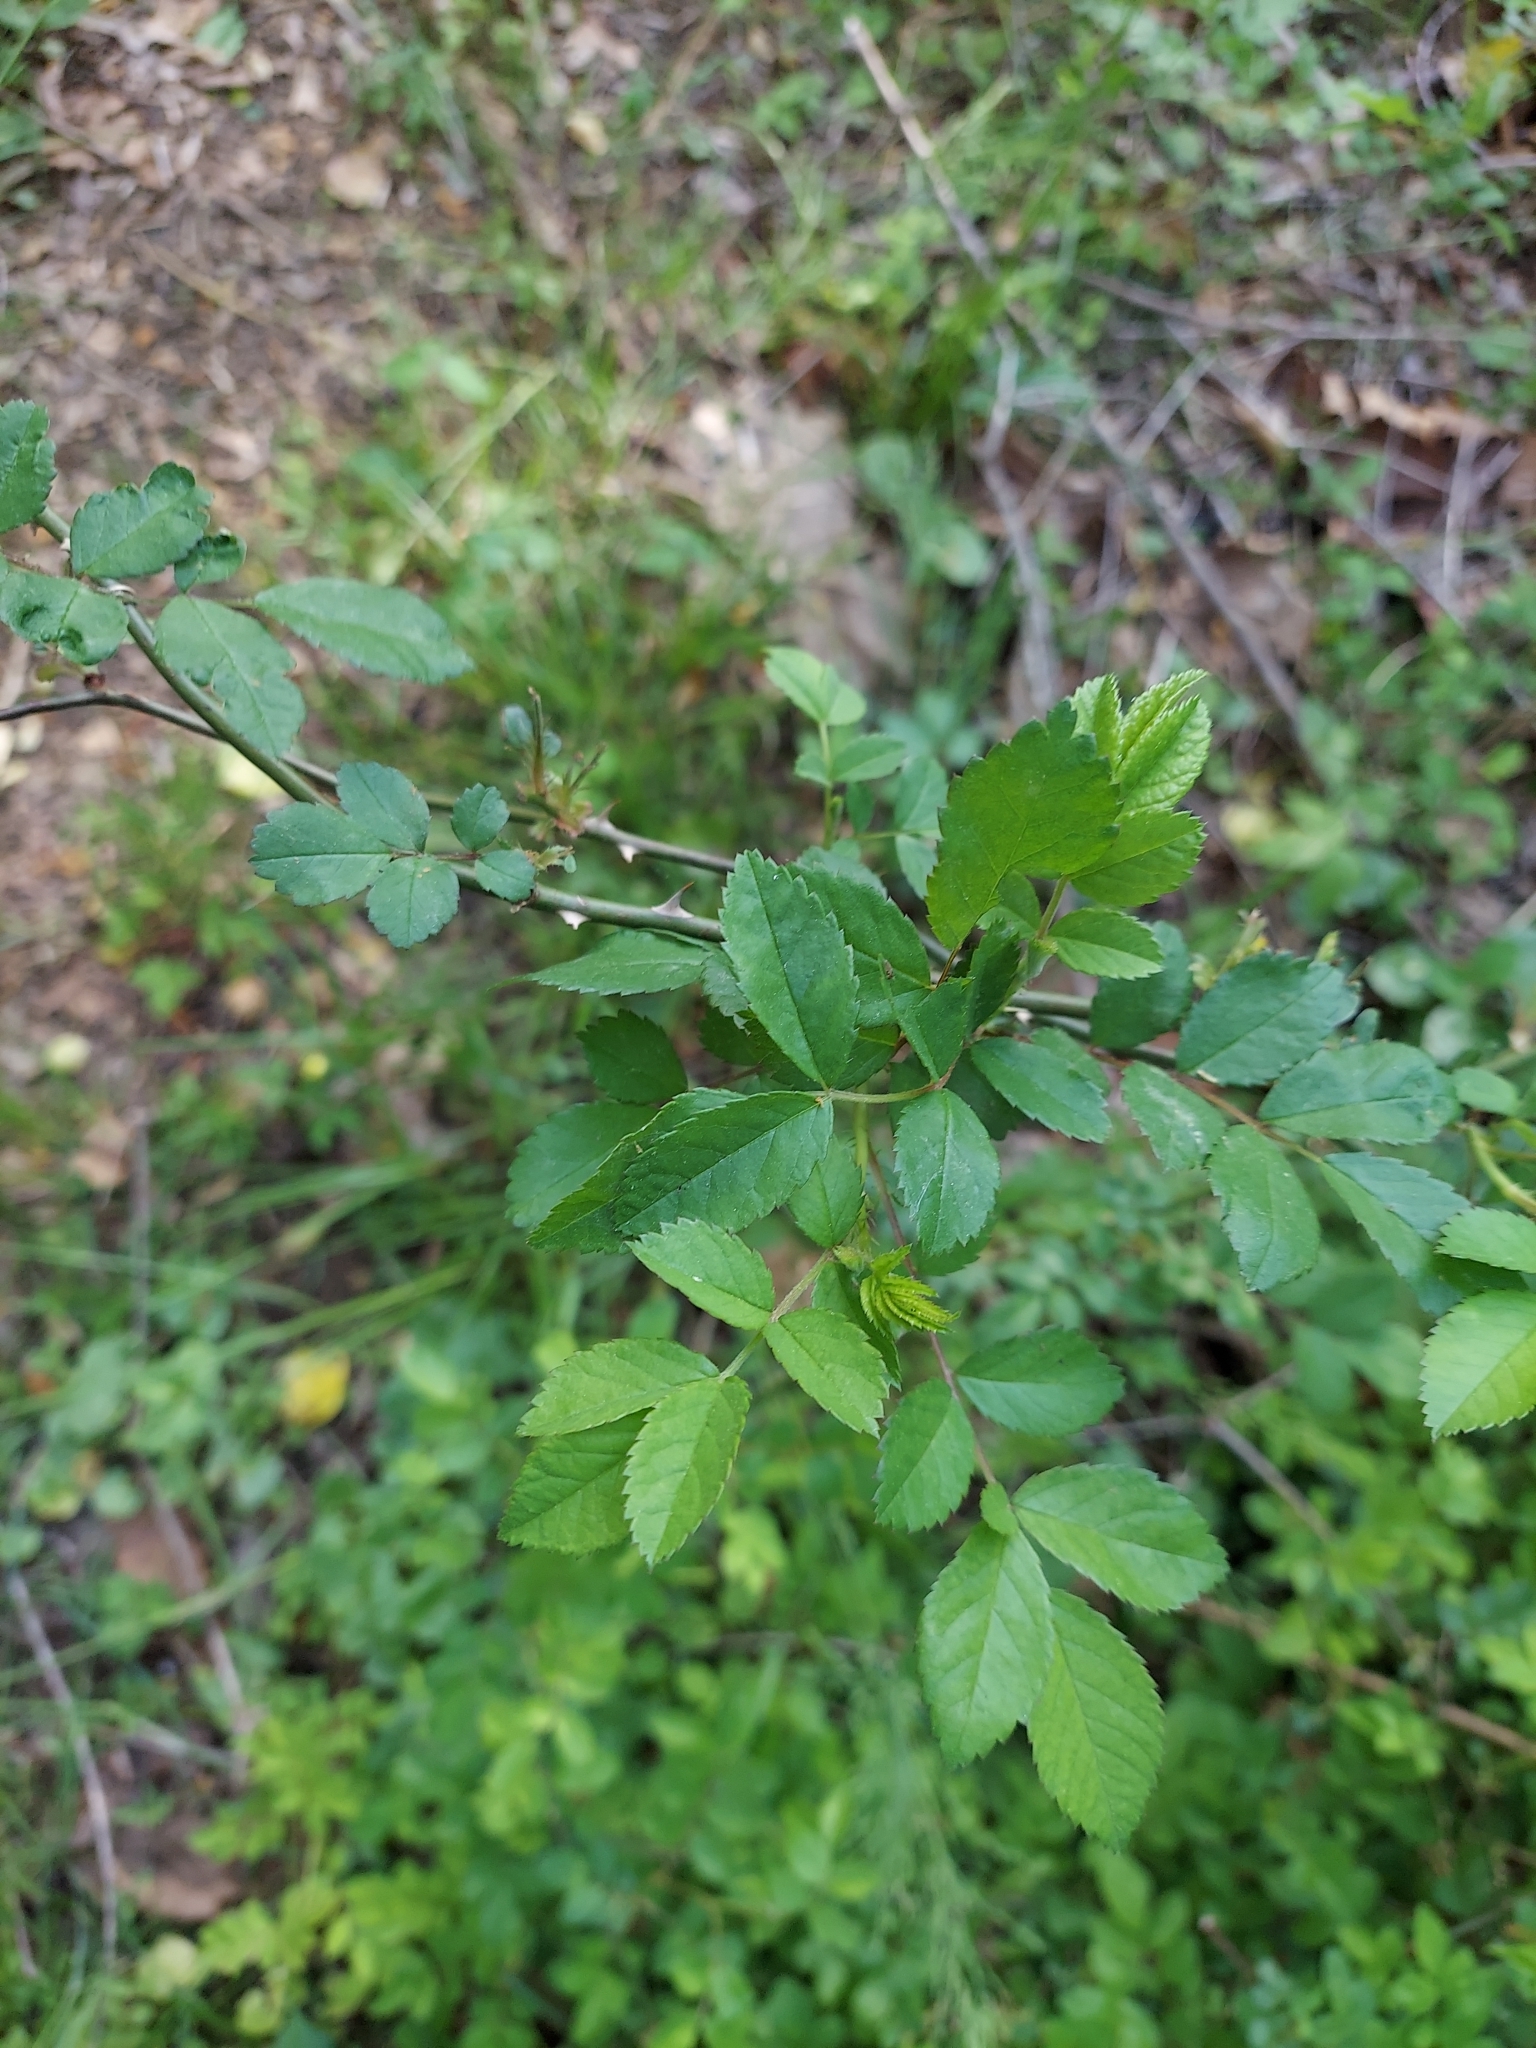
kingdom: Plantae
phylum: Tracheophyta
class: Magnoliopsida
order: Rosales
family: Rosaceae
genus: Rosa
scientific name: Rosa multiflora
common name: Multiflora rose
